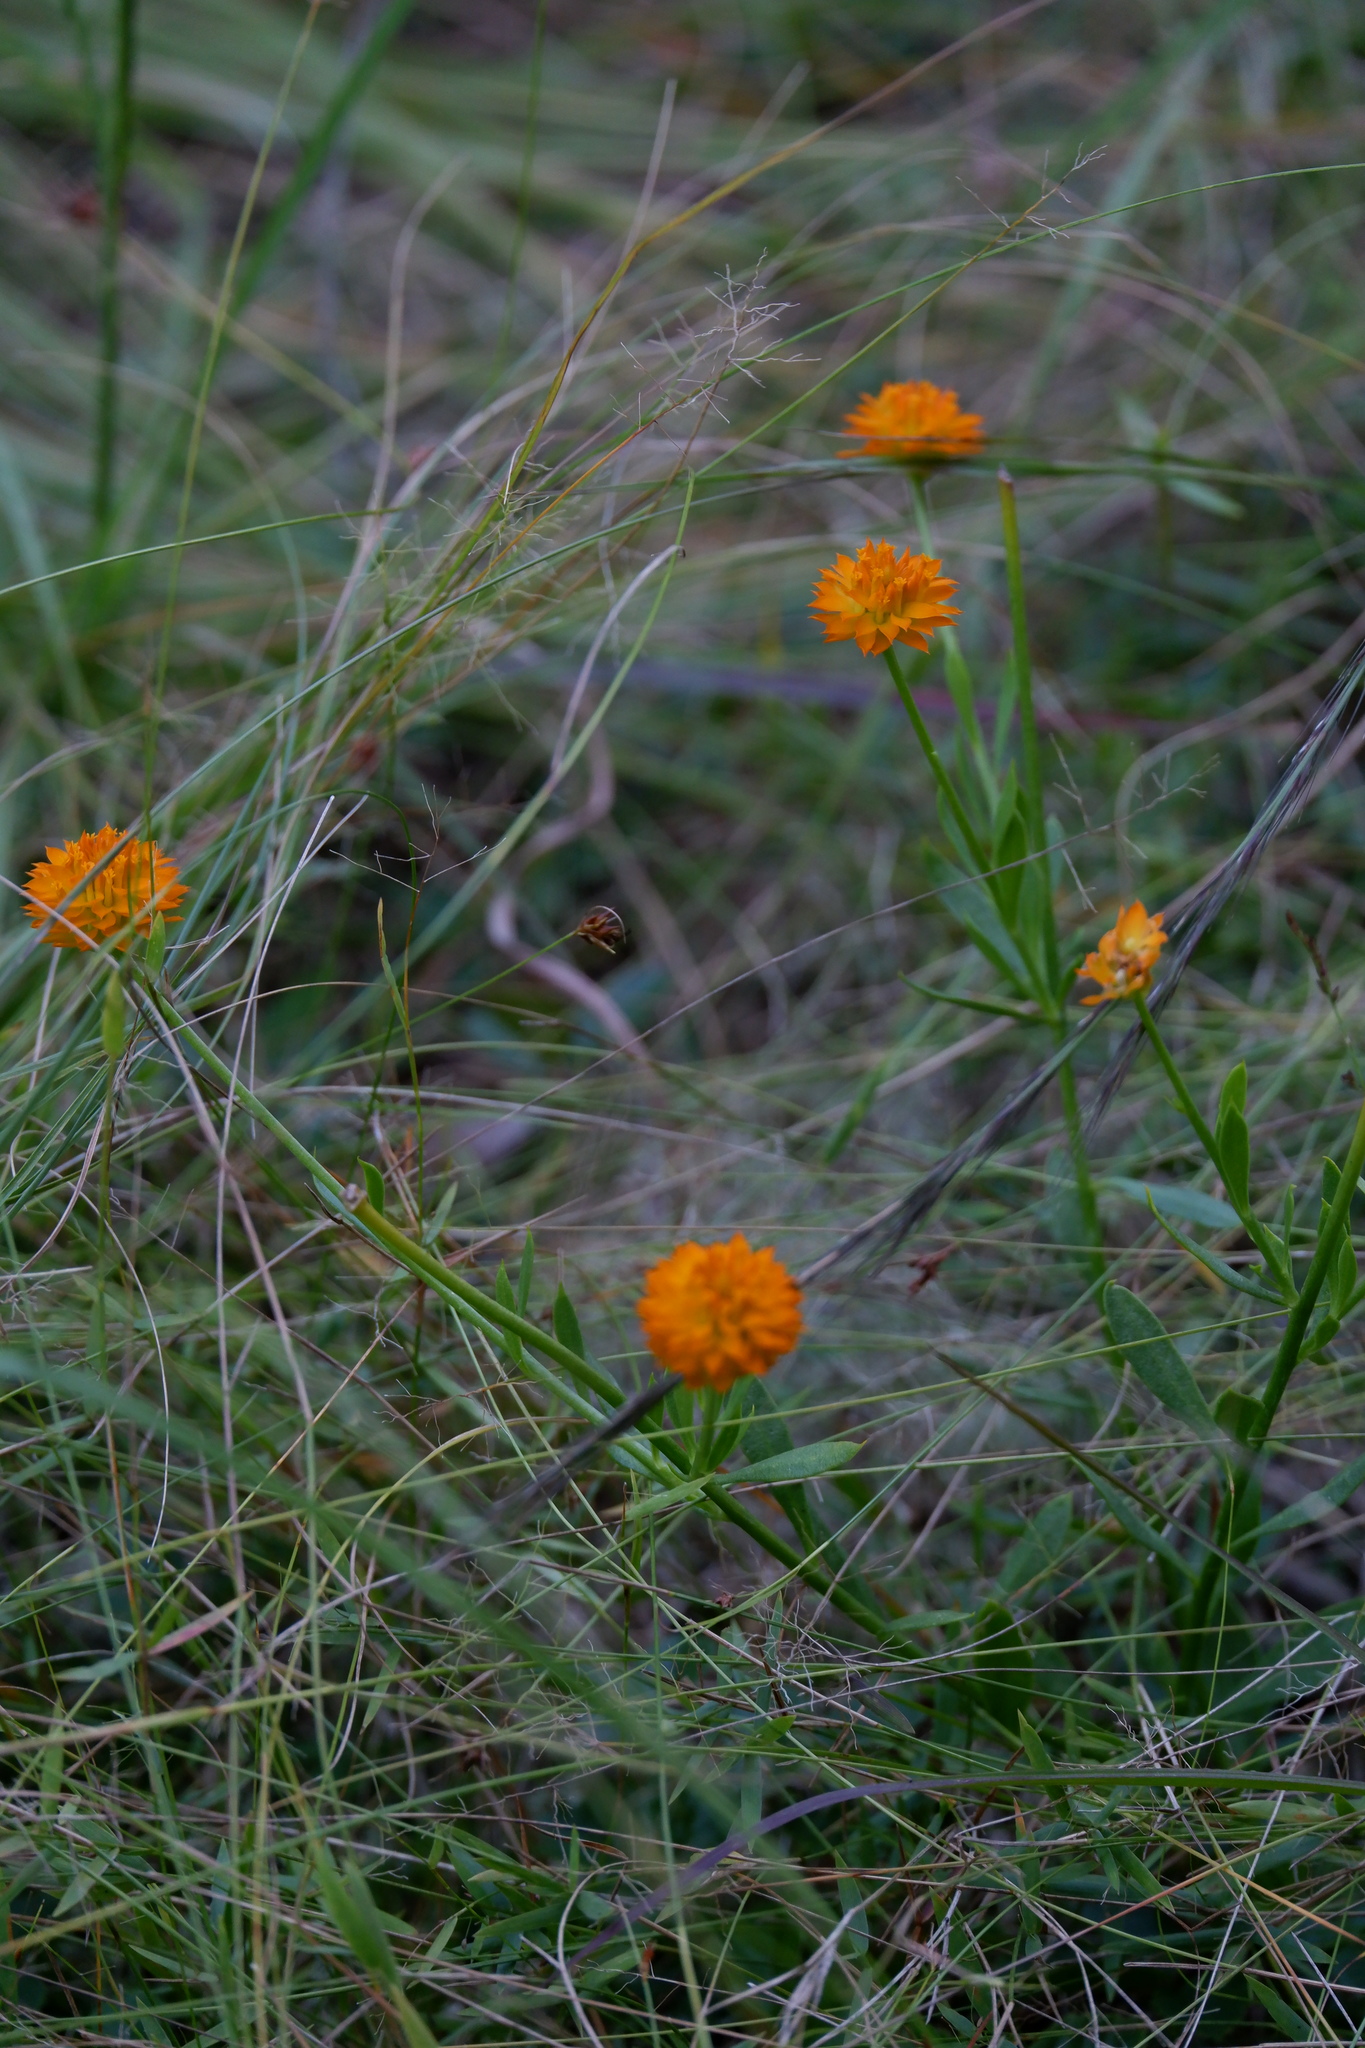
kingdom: Plantae
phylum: Tracheophyta
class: Magnoliopsida
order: Fabales
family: Polygalaceae
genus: Polygala
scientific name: Polygala lutea
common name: Orange milkwort
